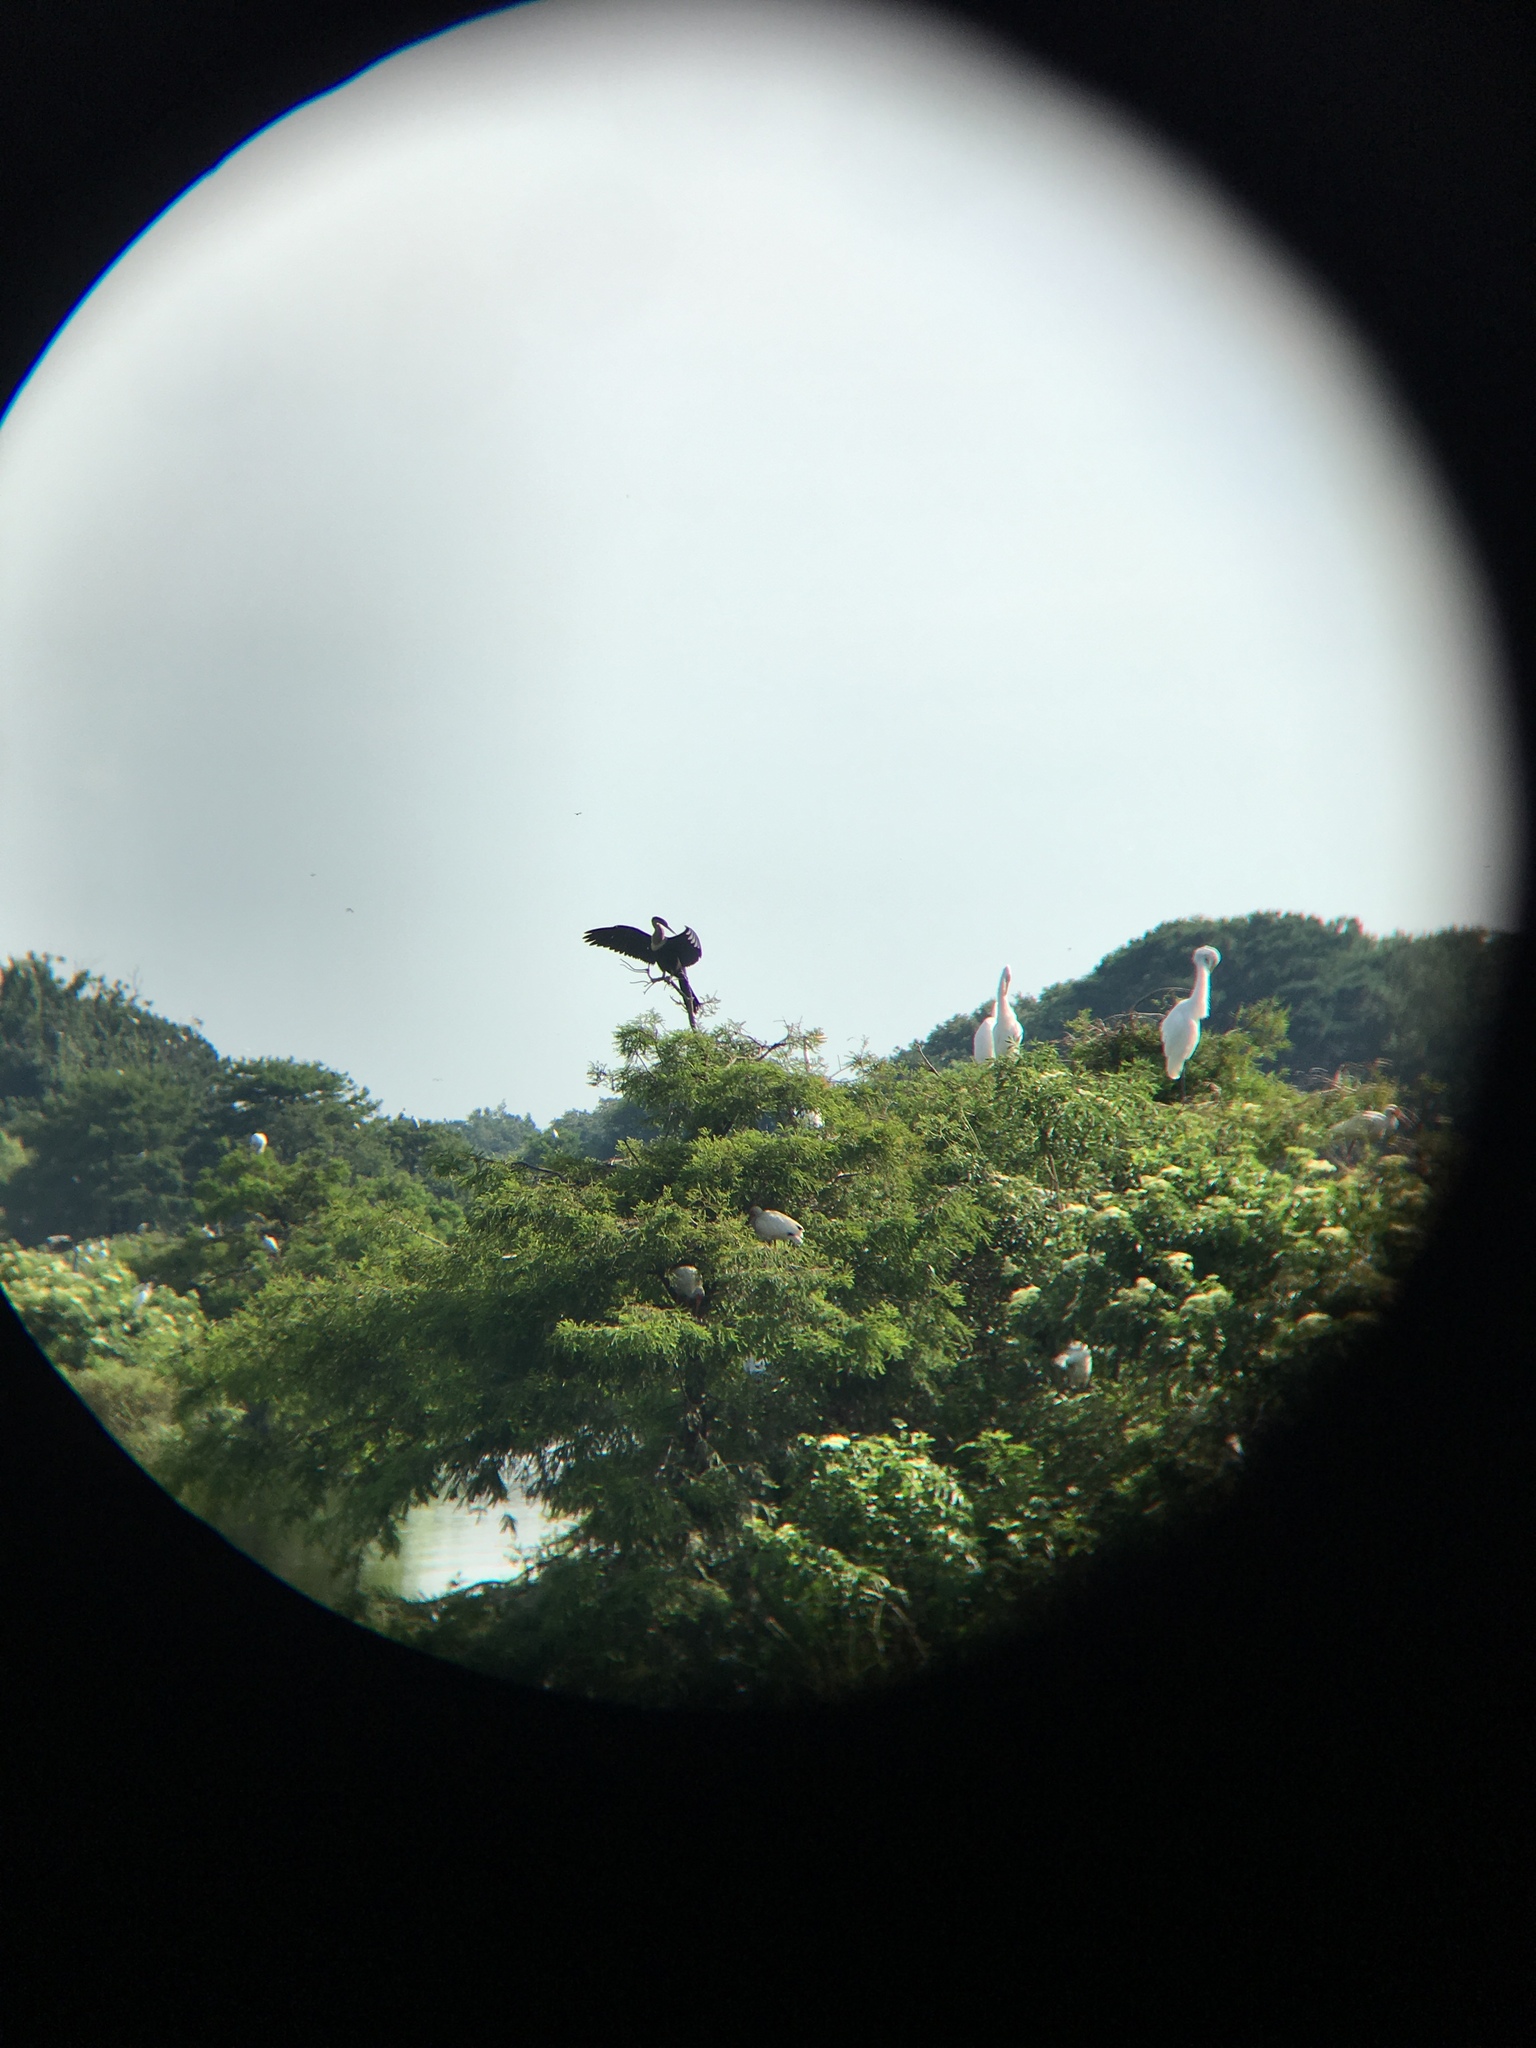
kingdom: Animalia
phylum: Chordata
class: Aves
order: Suliformes
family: Anhingidae
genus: Anhinga
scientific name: Anhinga anhinga
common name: Anhinga
